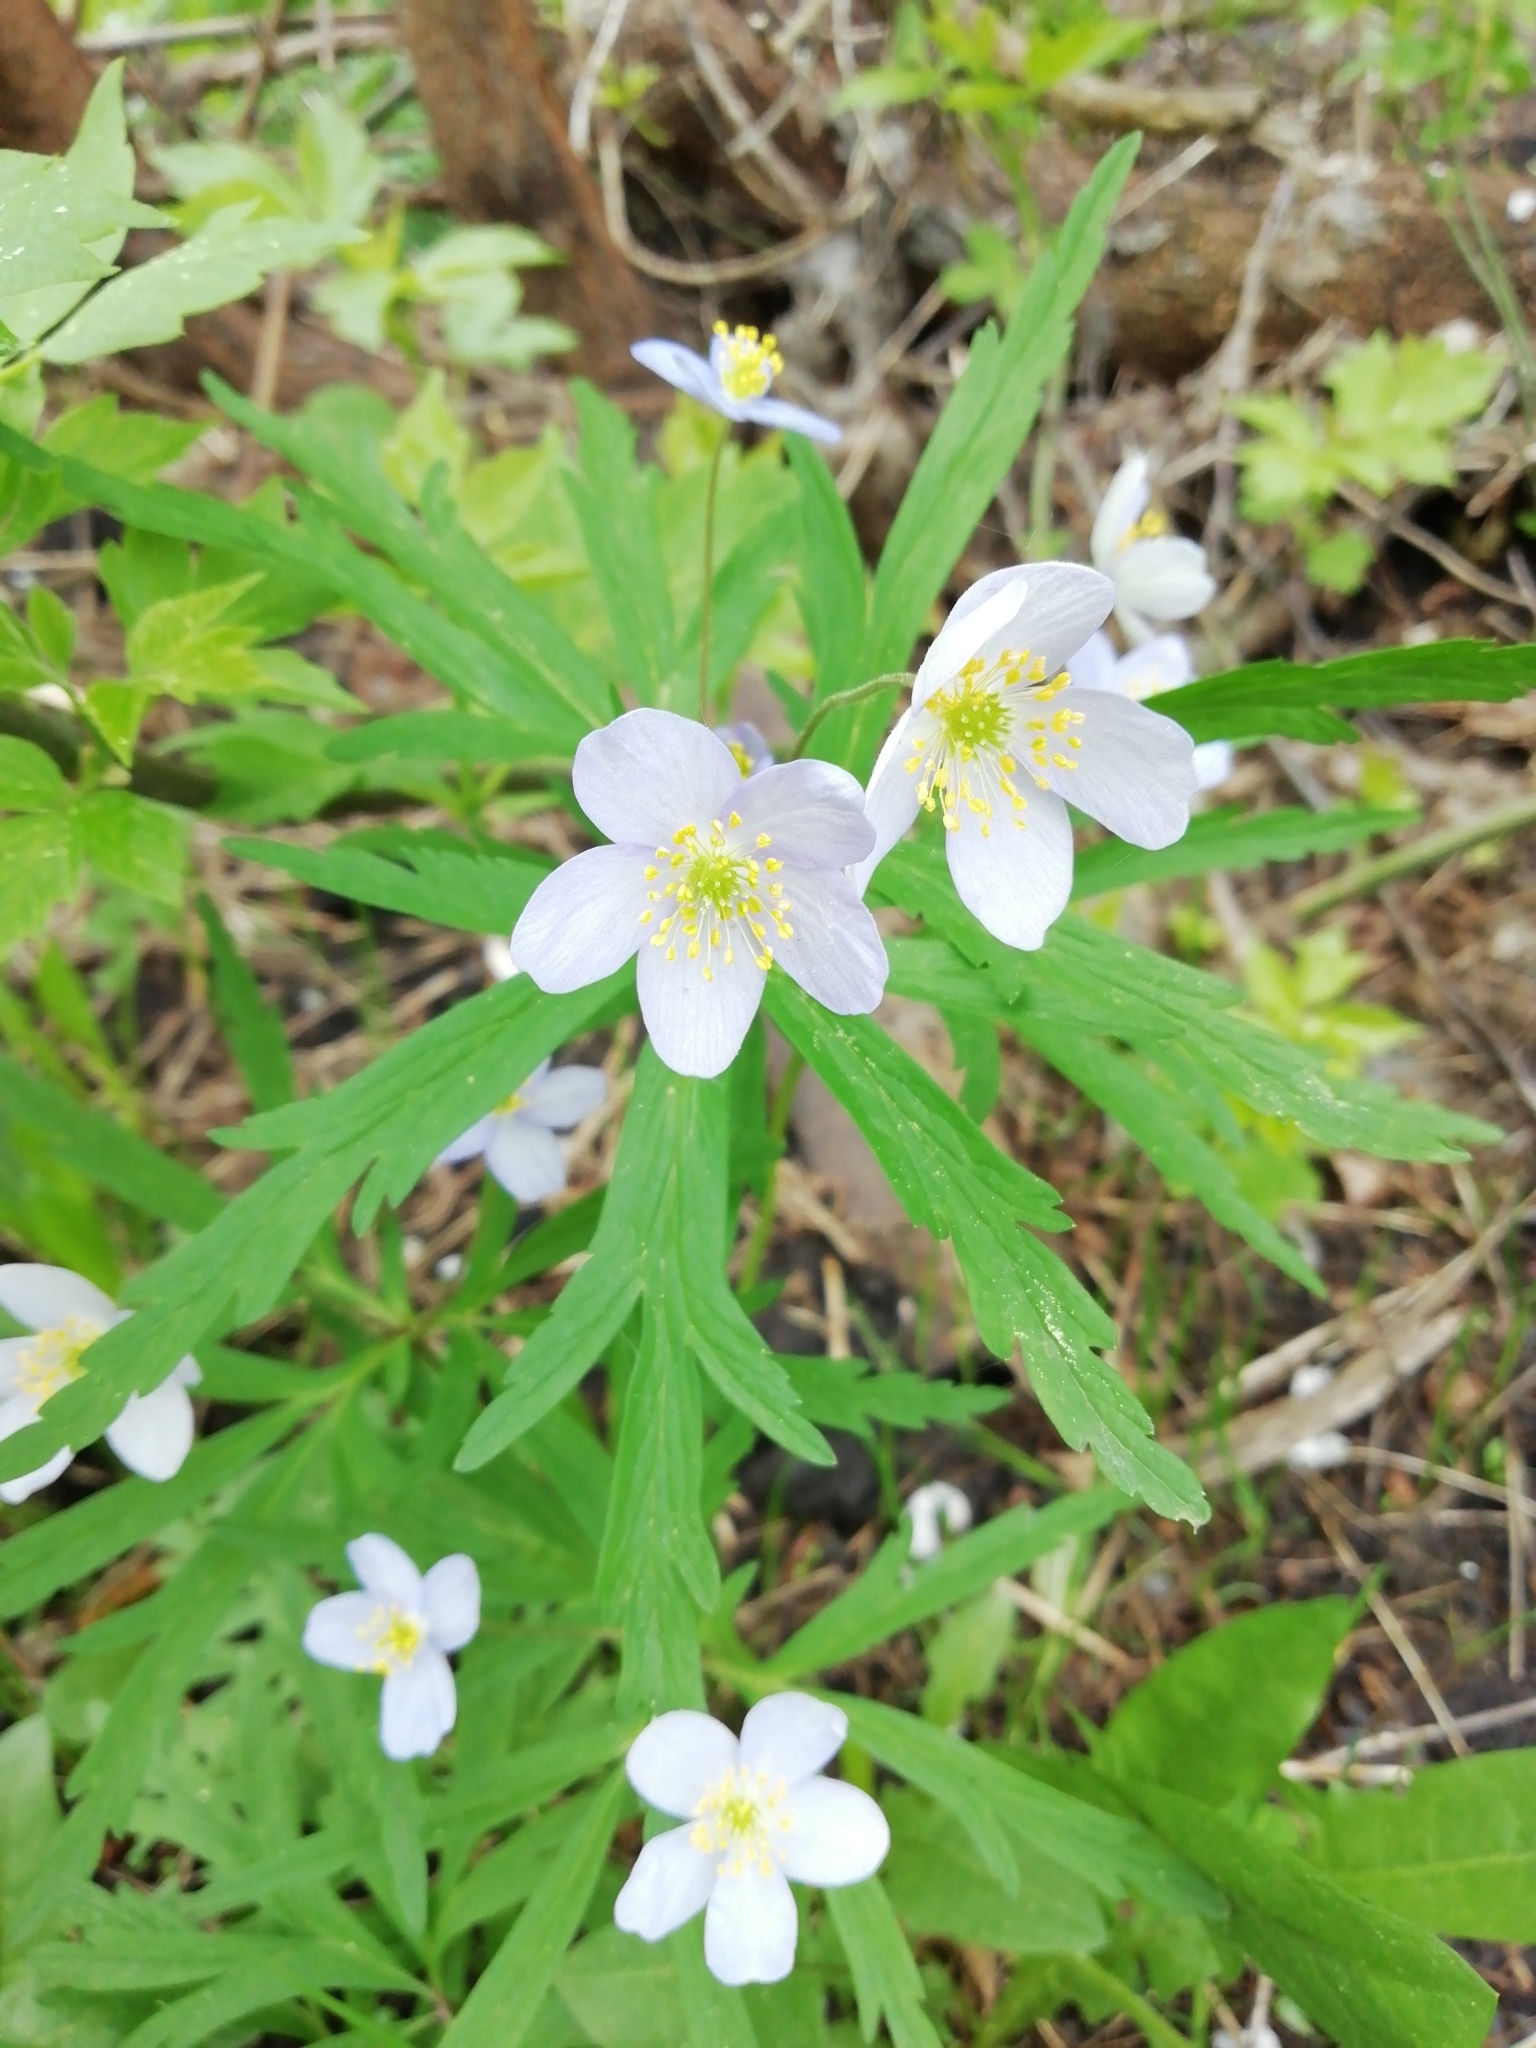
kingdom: Plantae
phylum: Tracheophyta
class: Magnoliopsida
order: Ranunculales
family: Ranunculaceae
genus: Anemone
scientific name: Anemone caerulea
